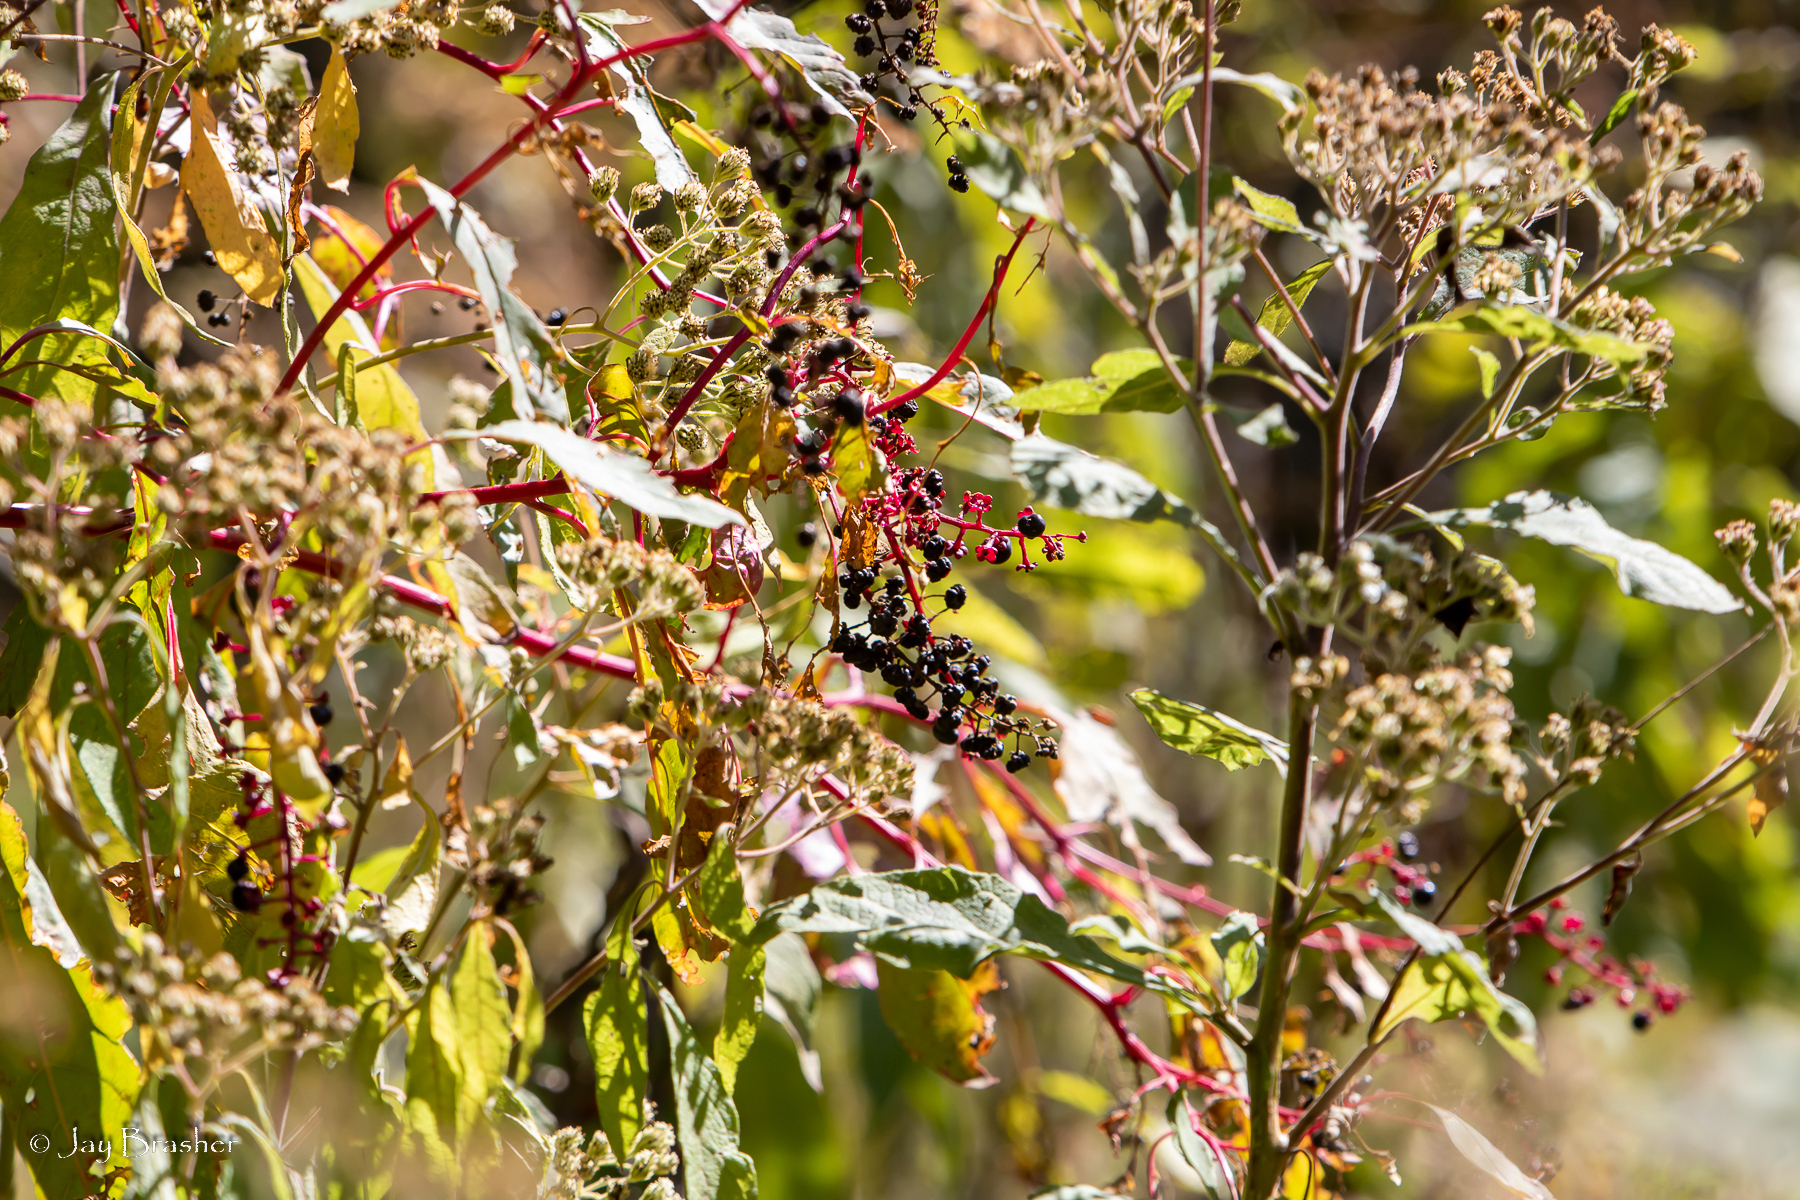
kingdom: Plantae
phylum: Tracheophyta
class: Magnoliopsida
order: Caryophyllales
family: Phytolaccaceae
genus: Phytolacca
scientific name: Phytolacca americana
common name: American pokeweed
